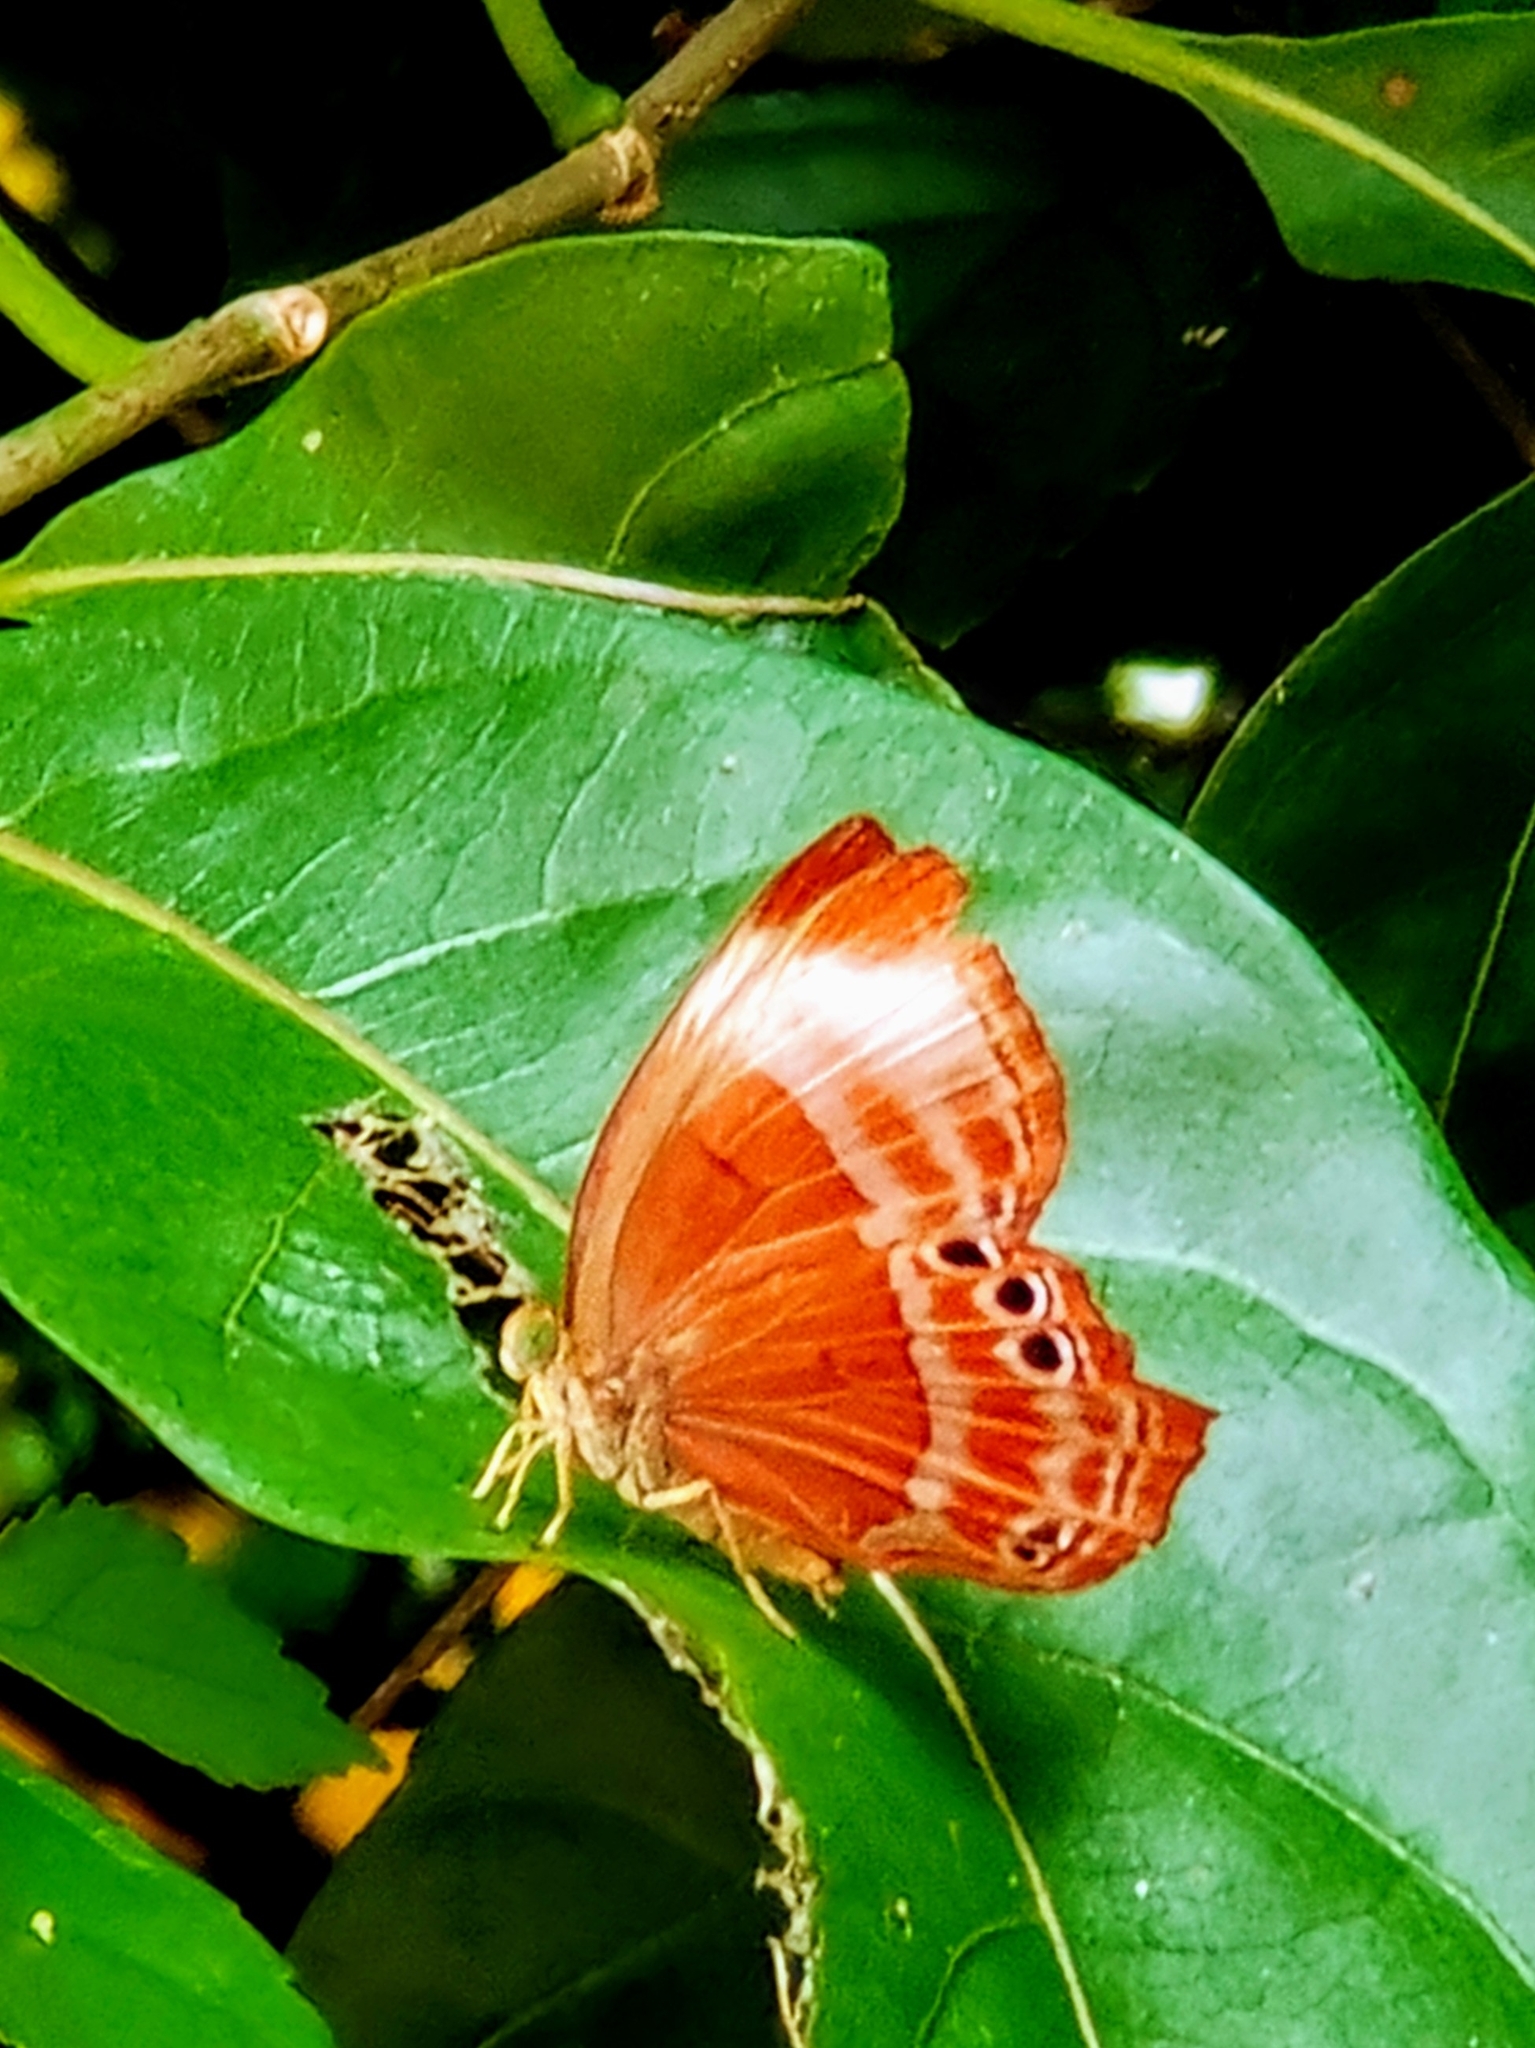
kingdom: Animalia
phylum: Arthropoda
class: Insecta
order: Lepidoptera
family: Lycaenidae
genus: Abisara
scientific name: Abisara saturata
